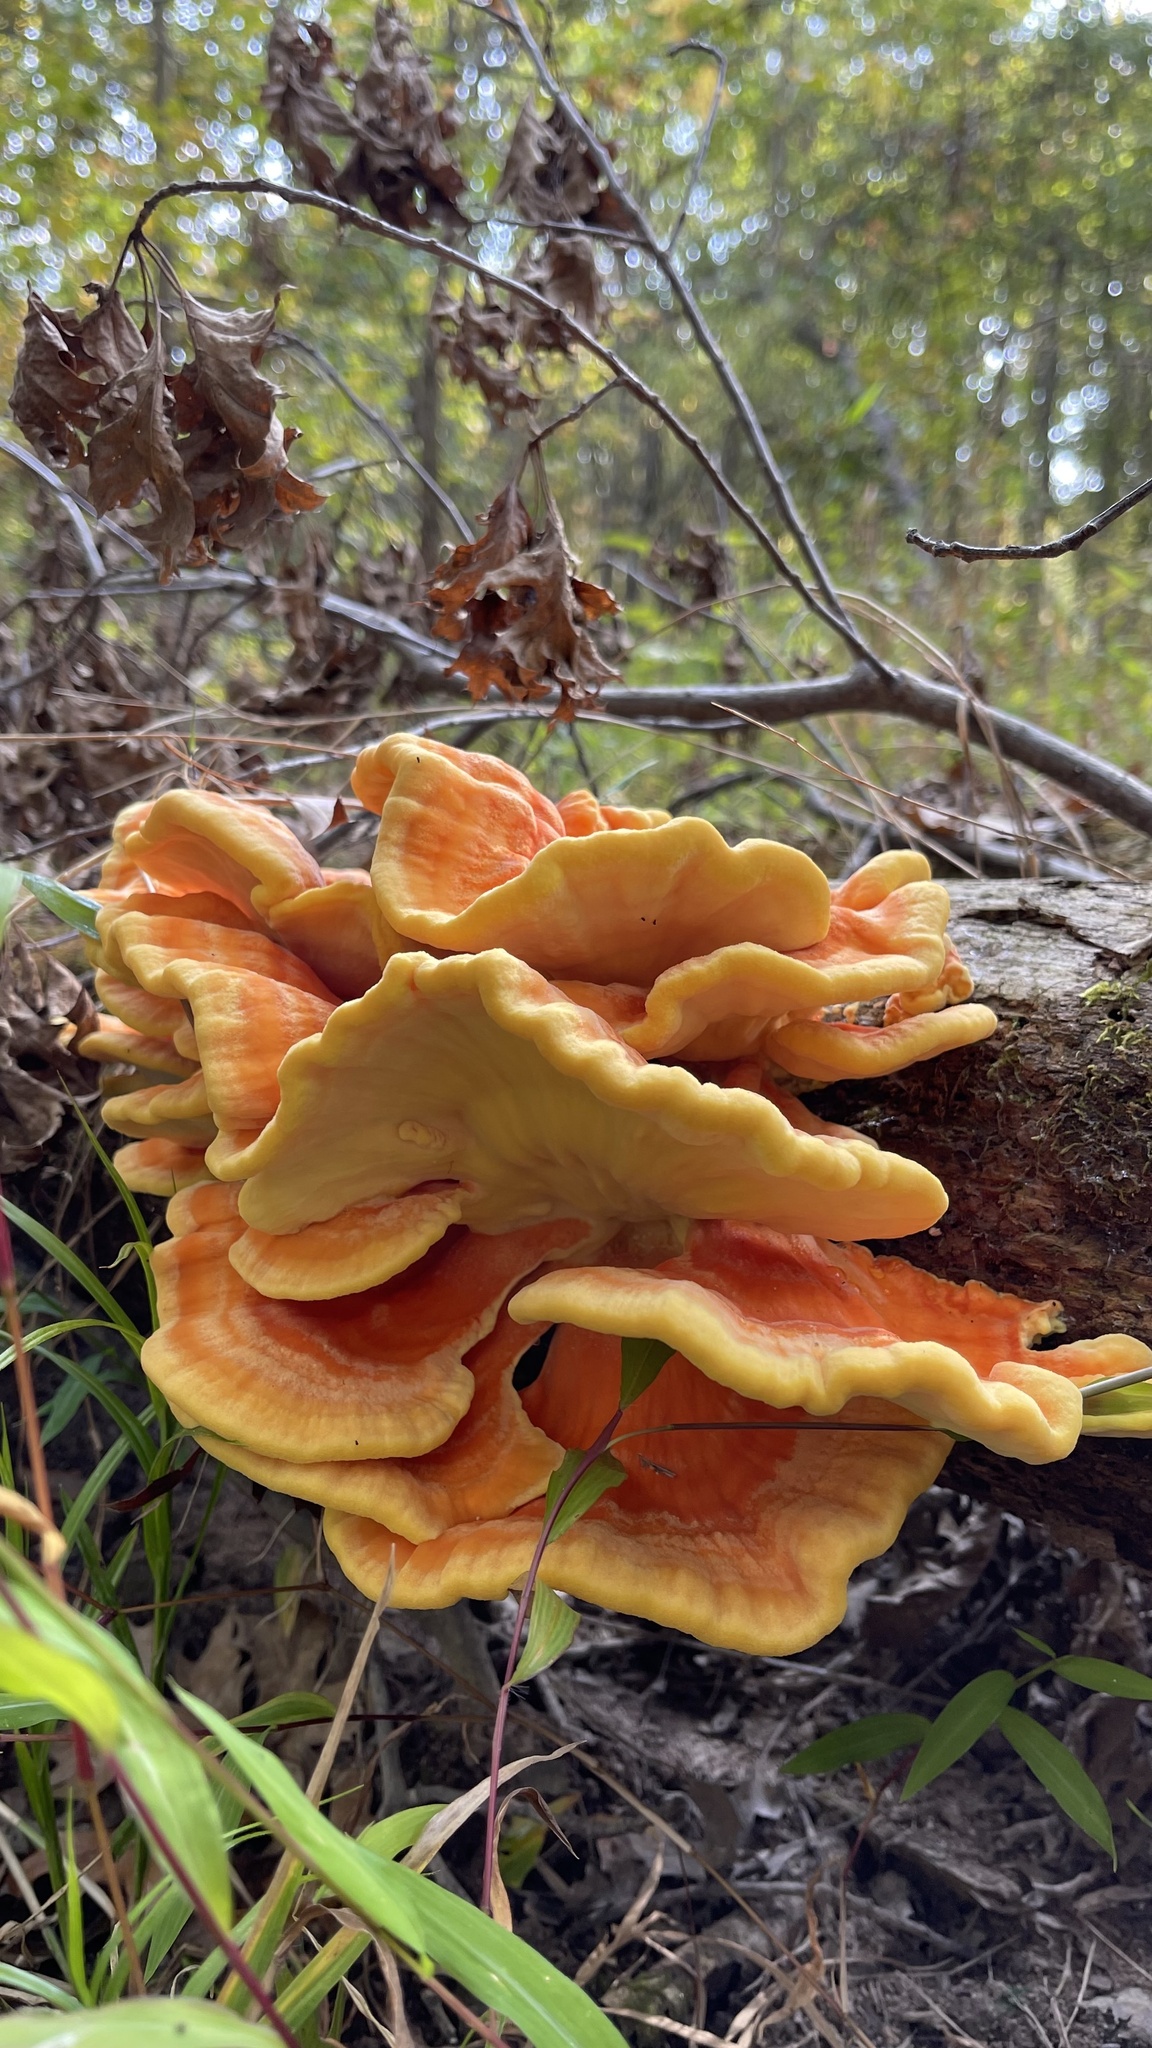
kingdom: Fungi
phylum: Basidiomycota
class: Agaricomycetes
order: Polyporales
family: Laetiporaceae
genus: Laetiporus
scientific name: Laetiporus sulphureus
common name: Chicken of the woods
